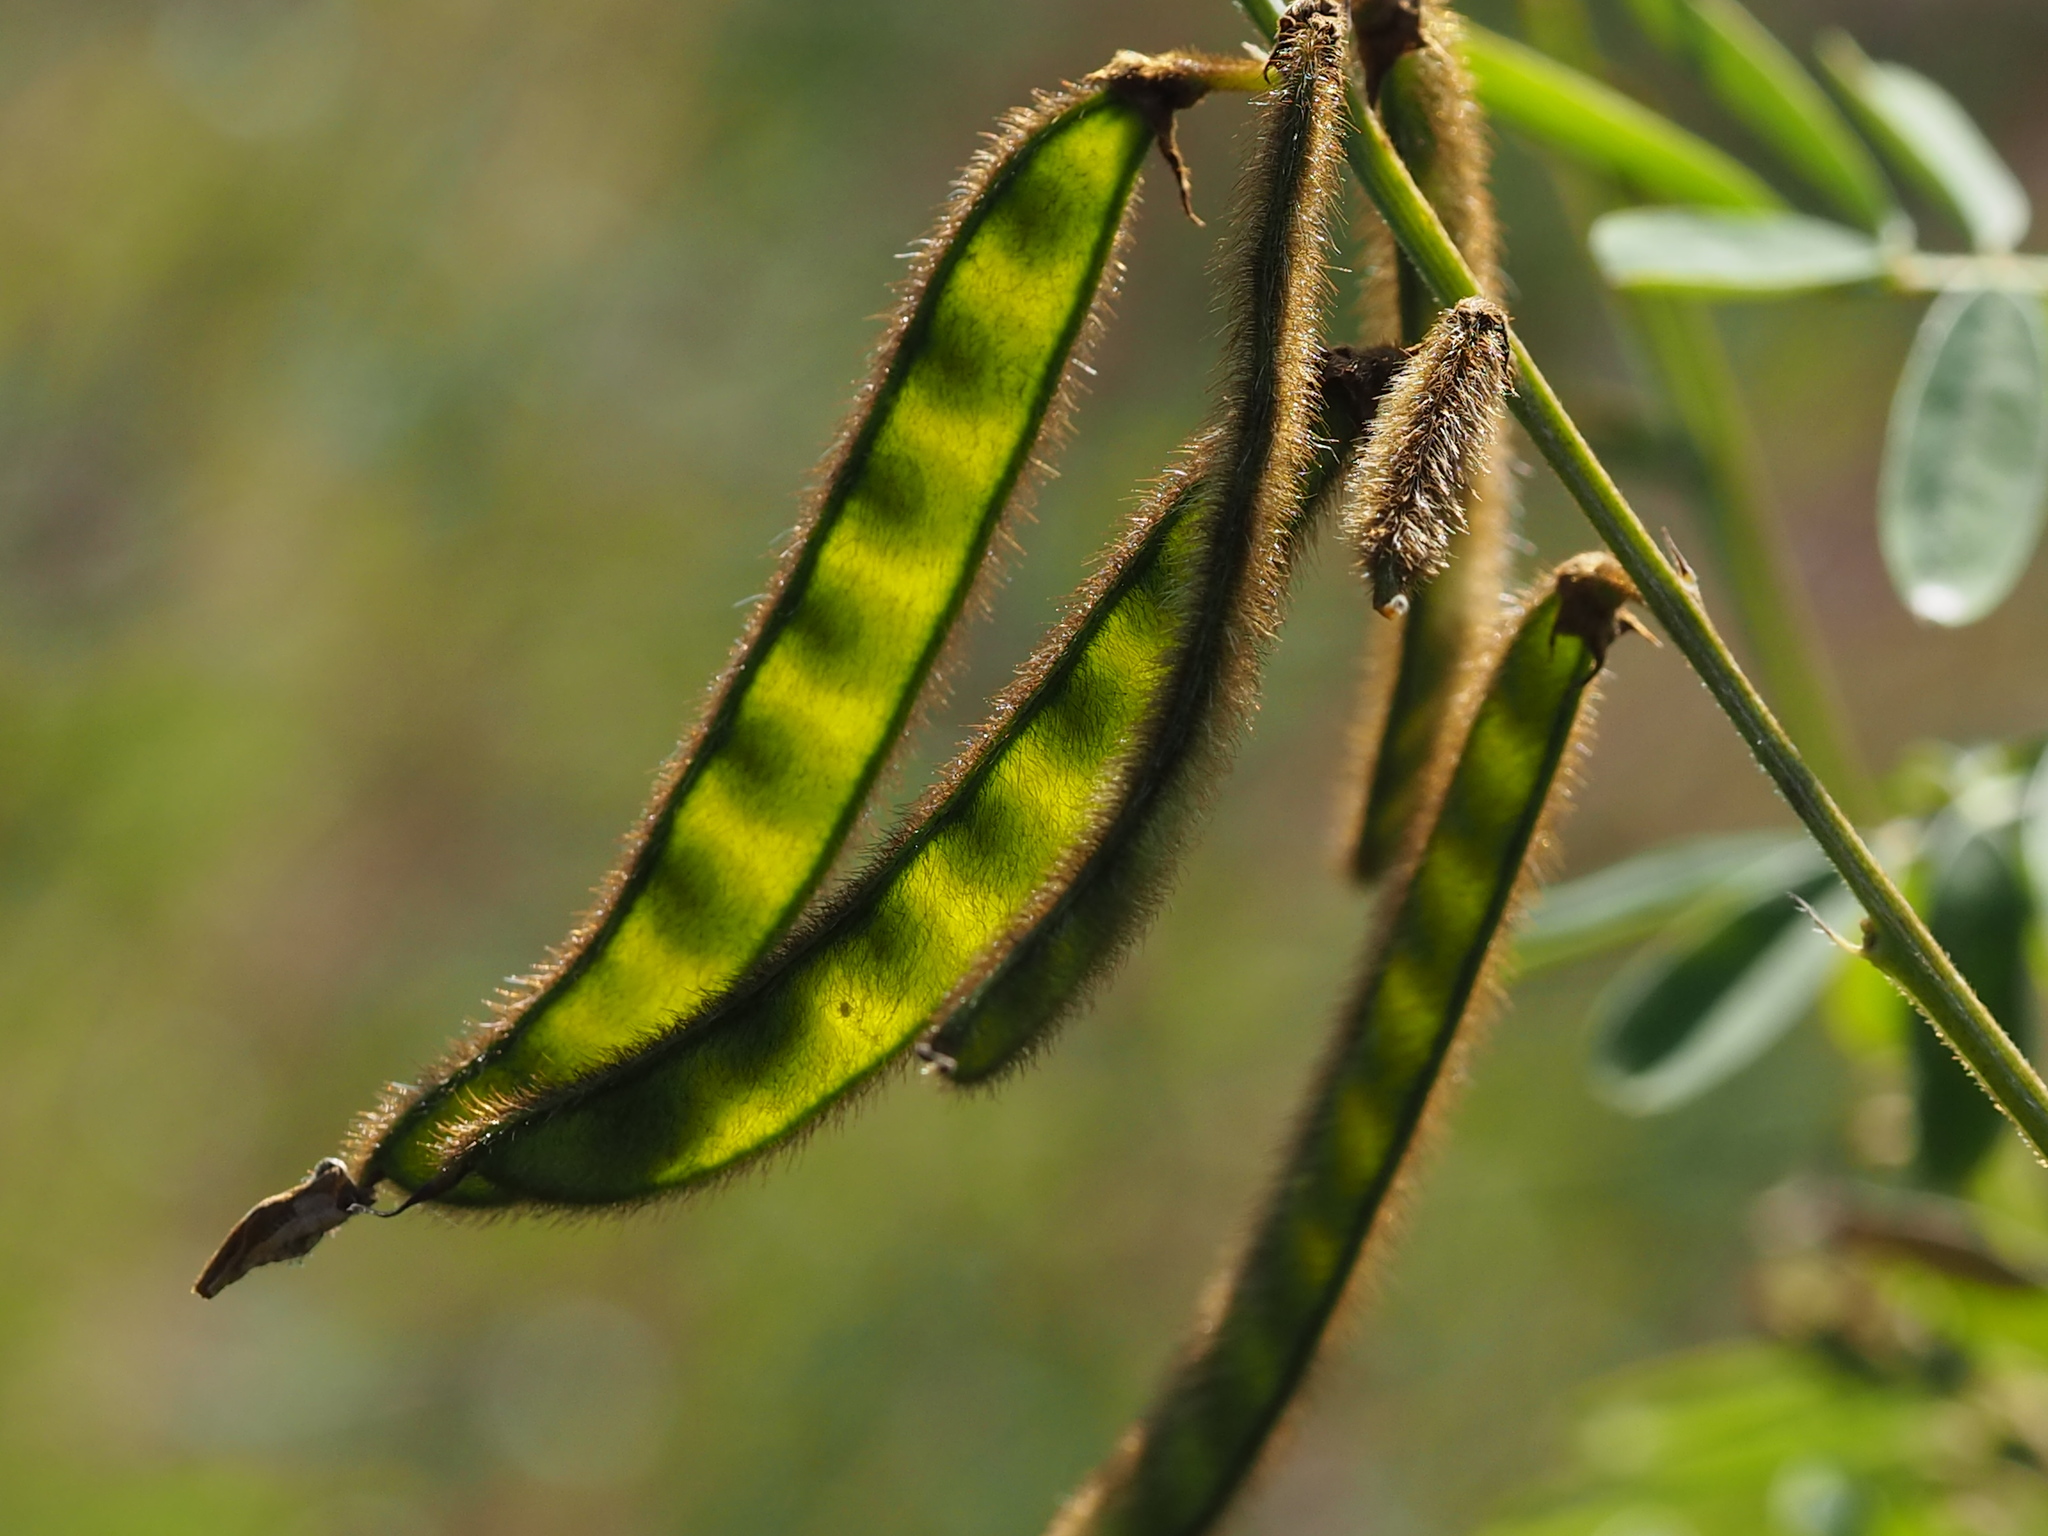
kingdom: Plantae
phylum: Tracheophyta
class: Magnoliopsida
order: Fabales
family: Fabaceae
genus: Tephrosia
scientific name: Tephrosia noctiflora
